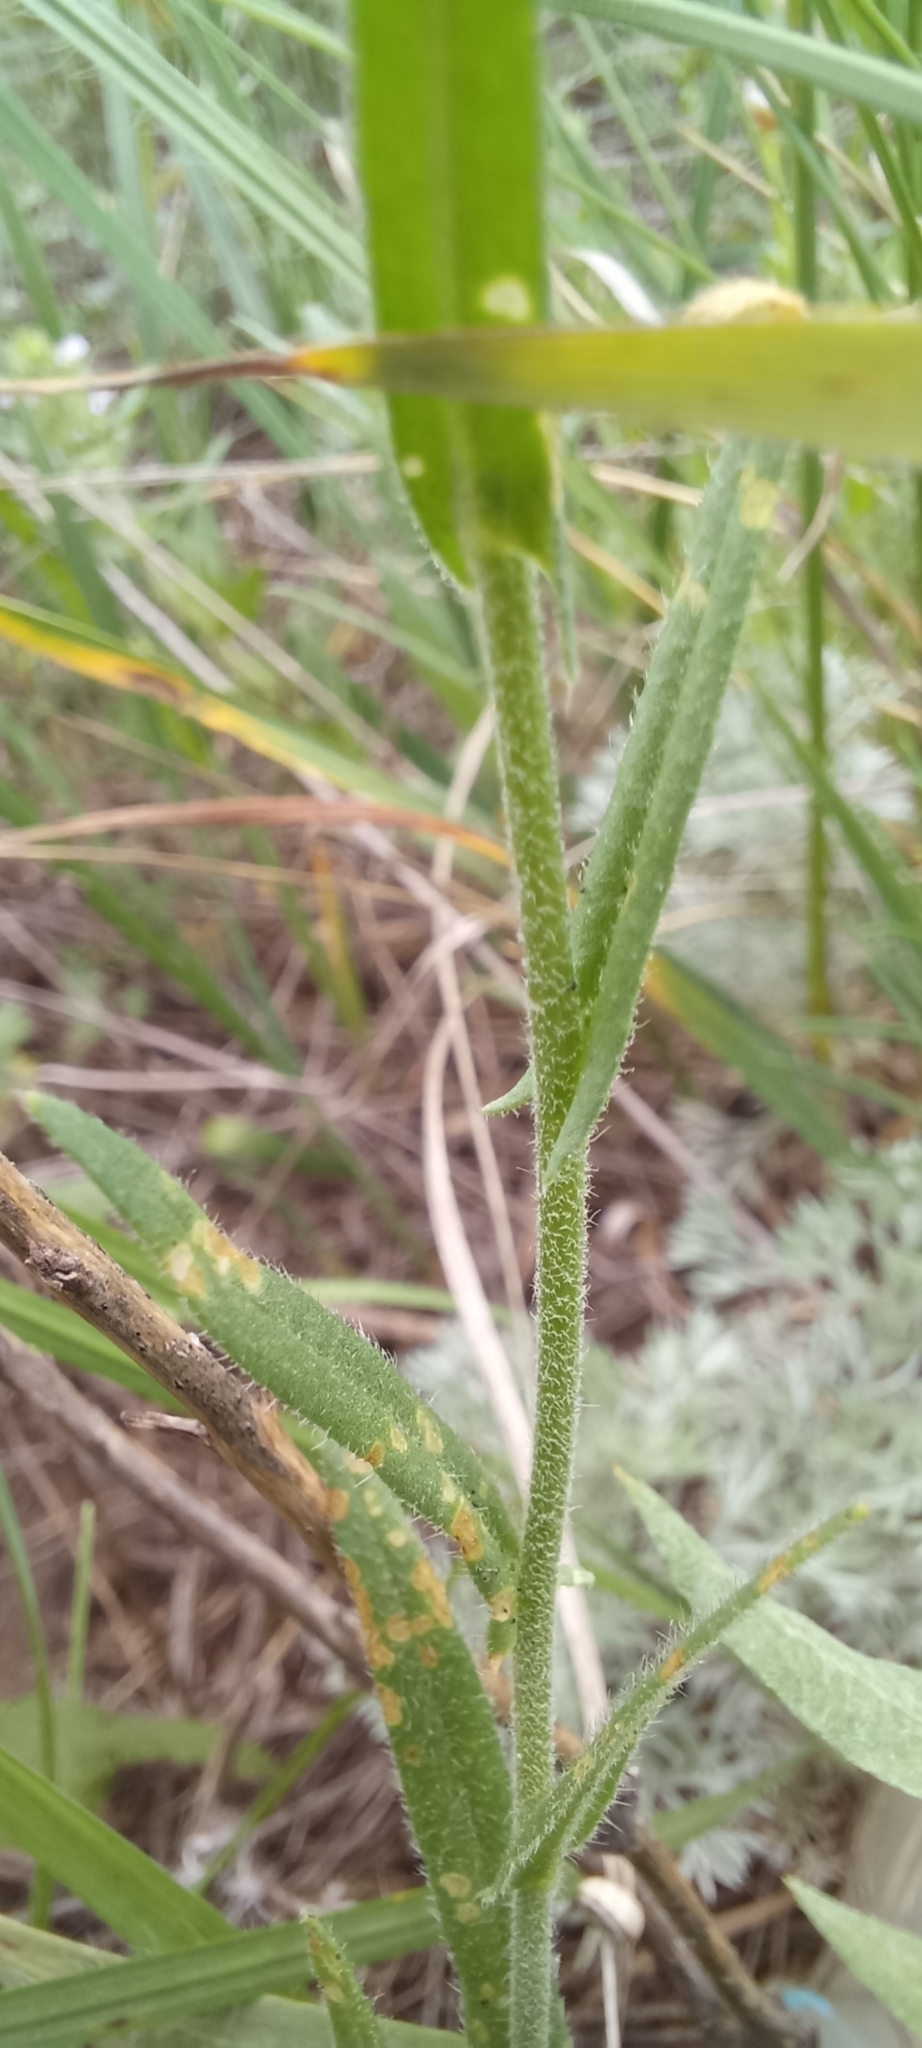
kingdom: Plantae
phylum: Tracheophyta
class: Magnoliopsida
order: Brassicales
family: Brassicaceae
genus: Camelina
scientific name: Camelina microcarpa
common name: Lesser gold-of-pleasure
